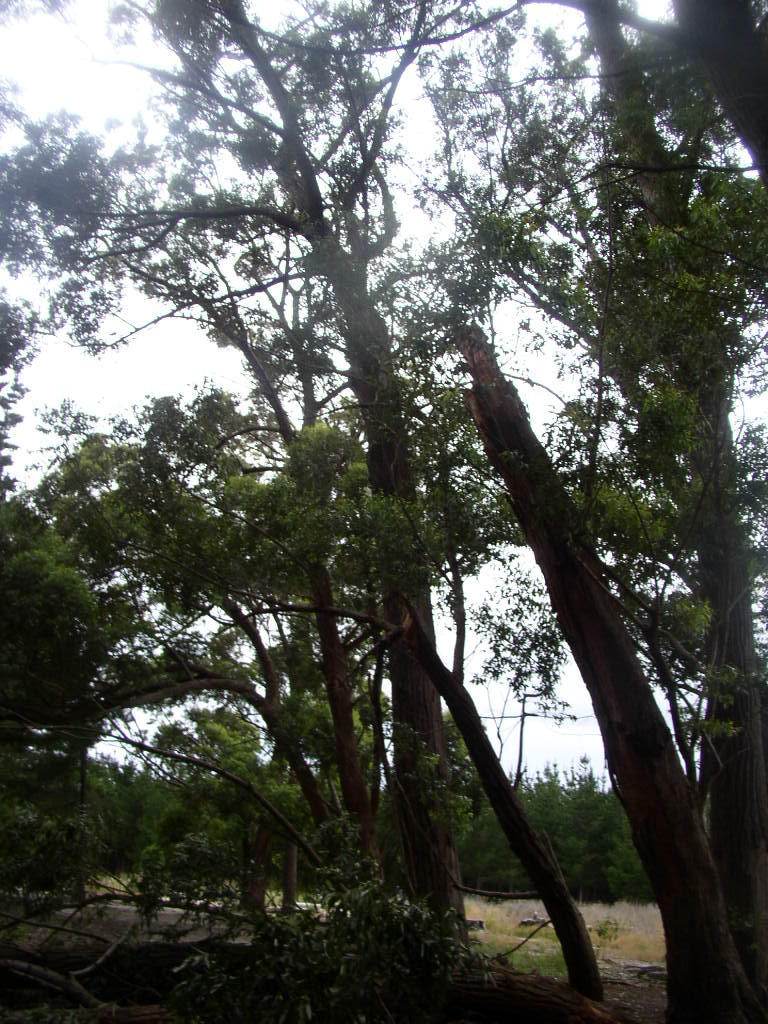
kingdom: Plantae
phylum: Tracheophyta
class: Magnoliopsida
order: Myrtales
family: Myrtaceae
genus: Eucalyptus
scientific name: Eucalyptus botryoides
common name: Bangalay
